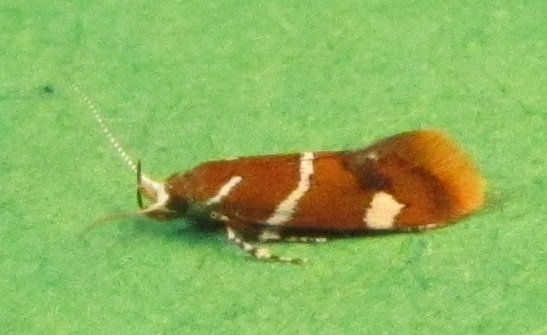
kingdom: Animalia
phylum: Arthropoda
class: Insecta
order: Lepidoptera
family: Oecophoridae
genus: Promalactis
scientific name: Promalactis suzukiella
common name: Moth
